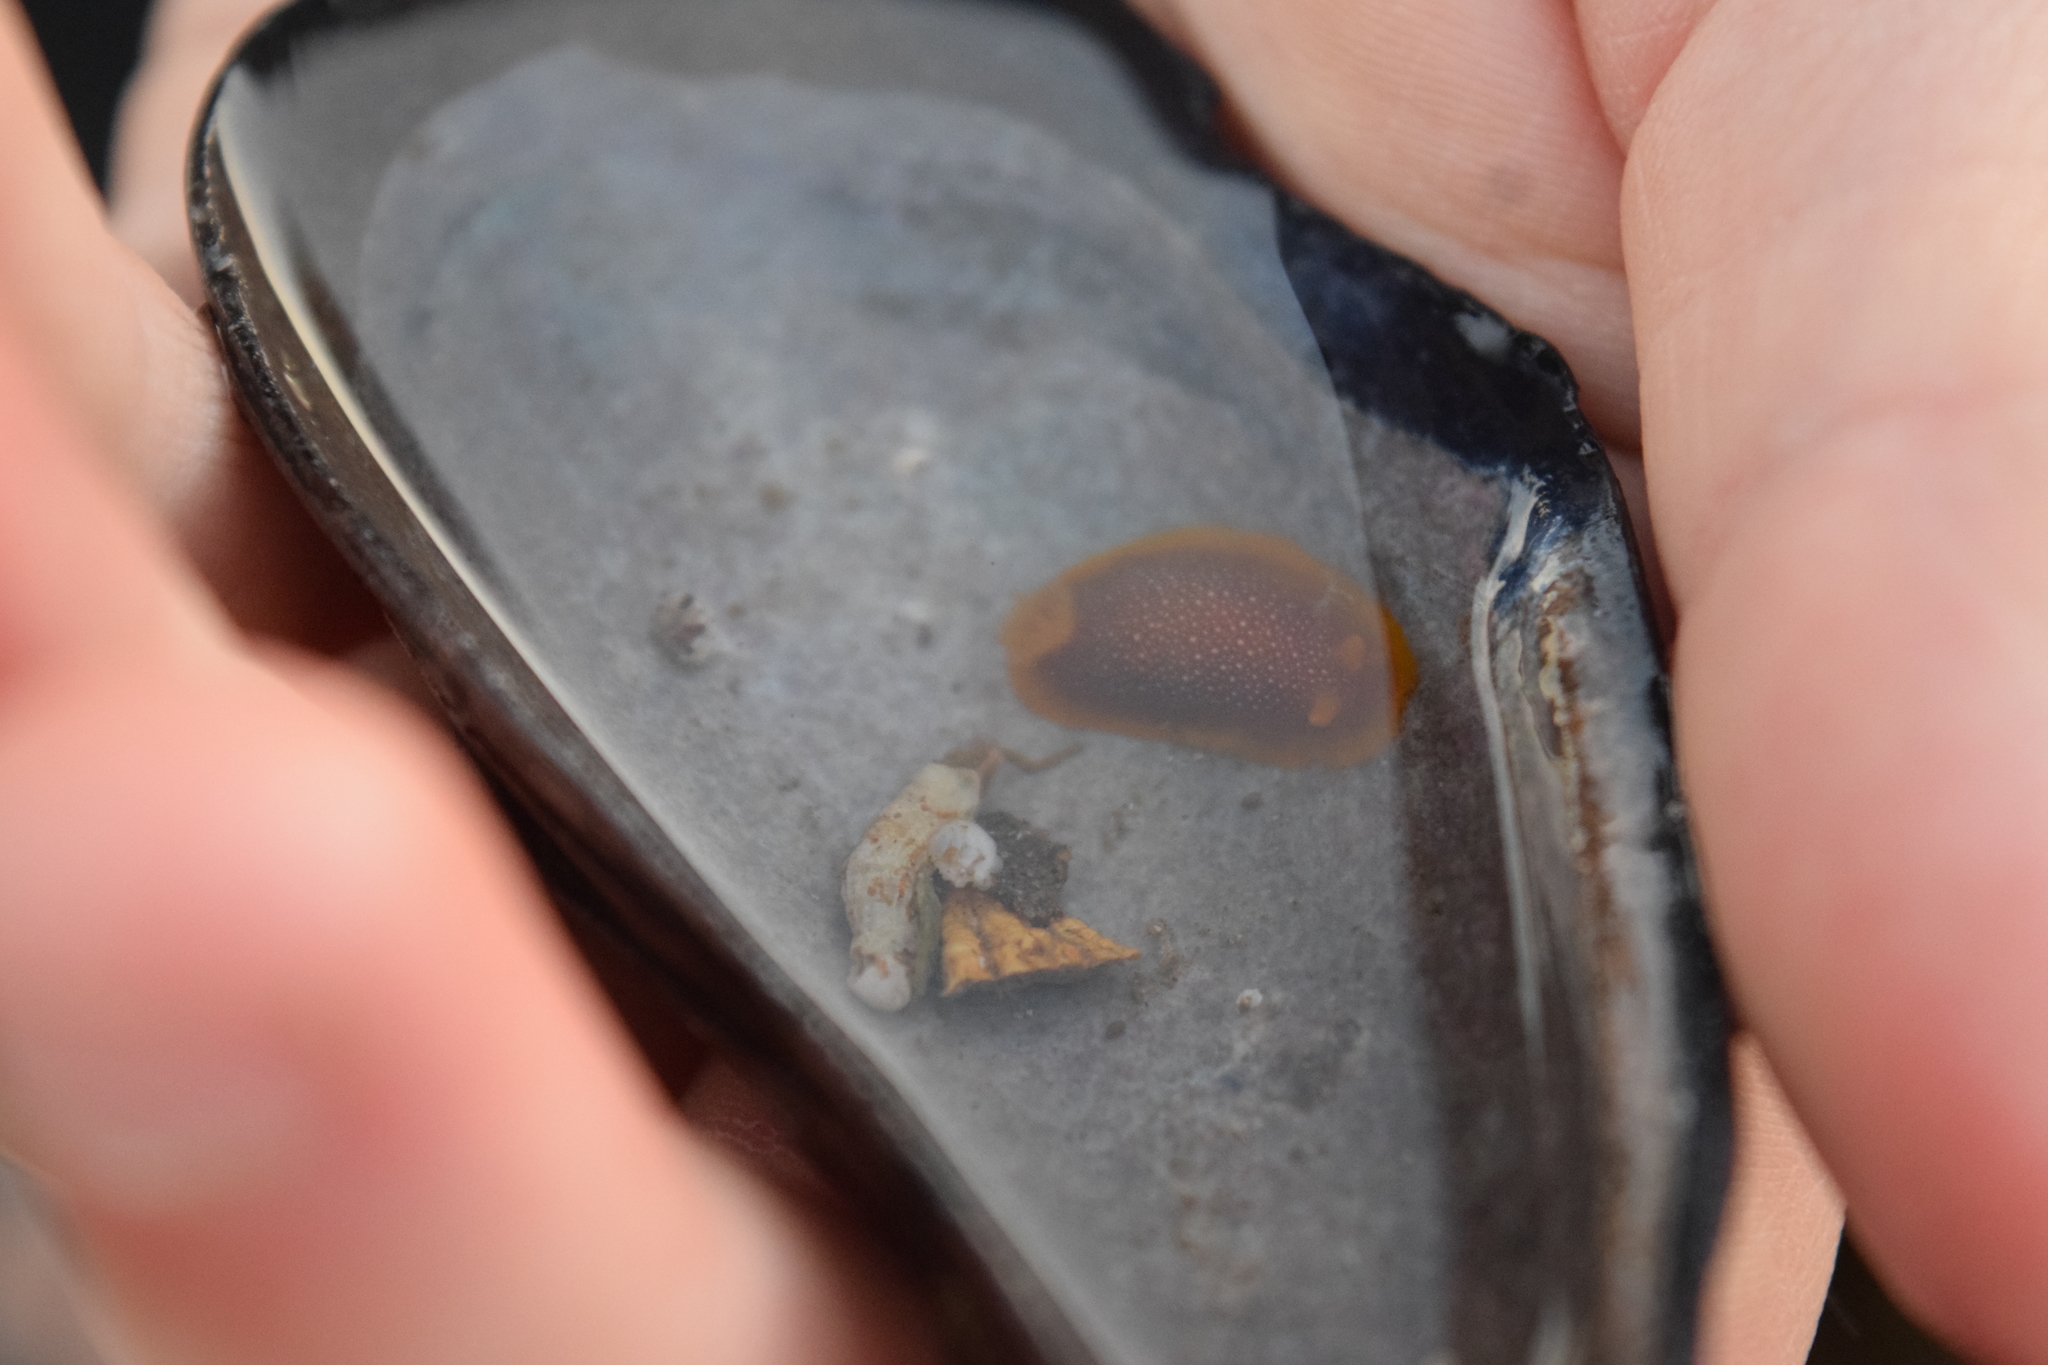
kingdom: Animalia
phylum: Mollusca
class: Gastropoda
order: Nudibranchia
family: Dendrodorididae
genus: Doriopsilla
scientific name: Doriopsilla gemela
